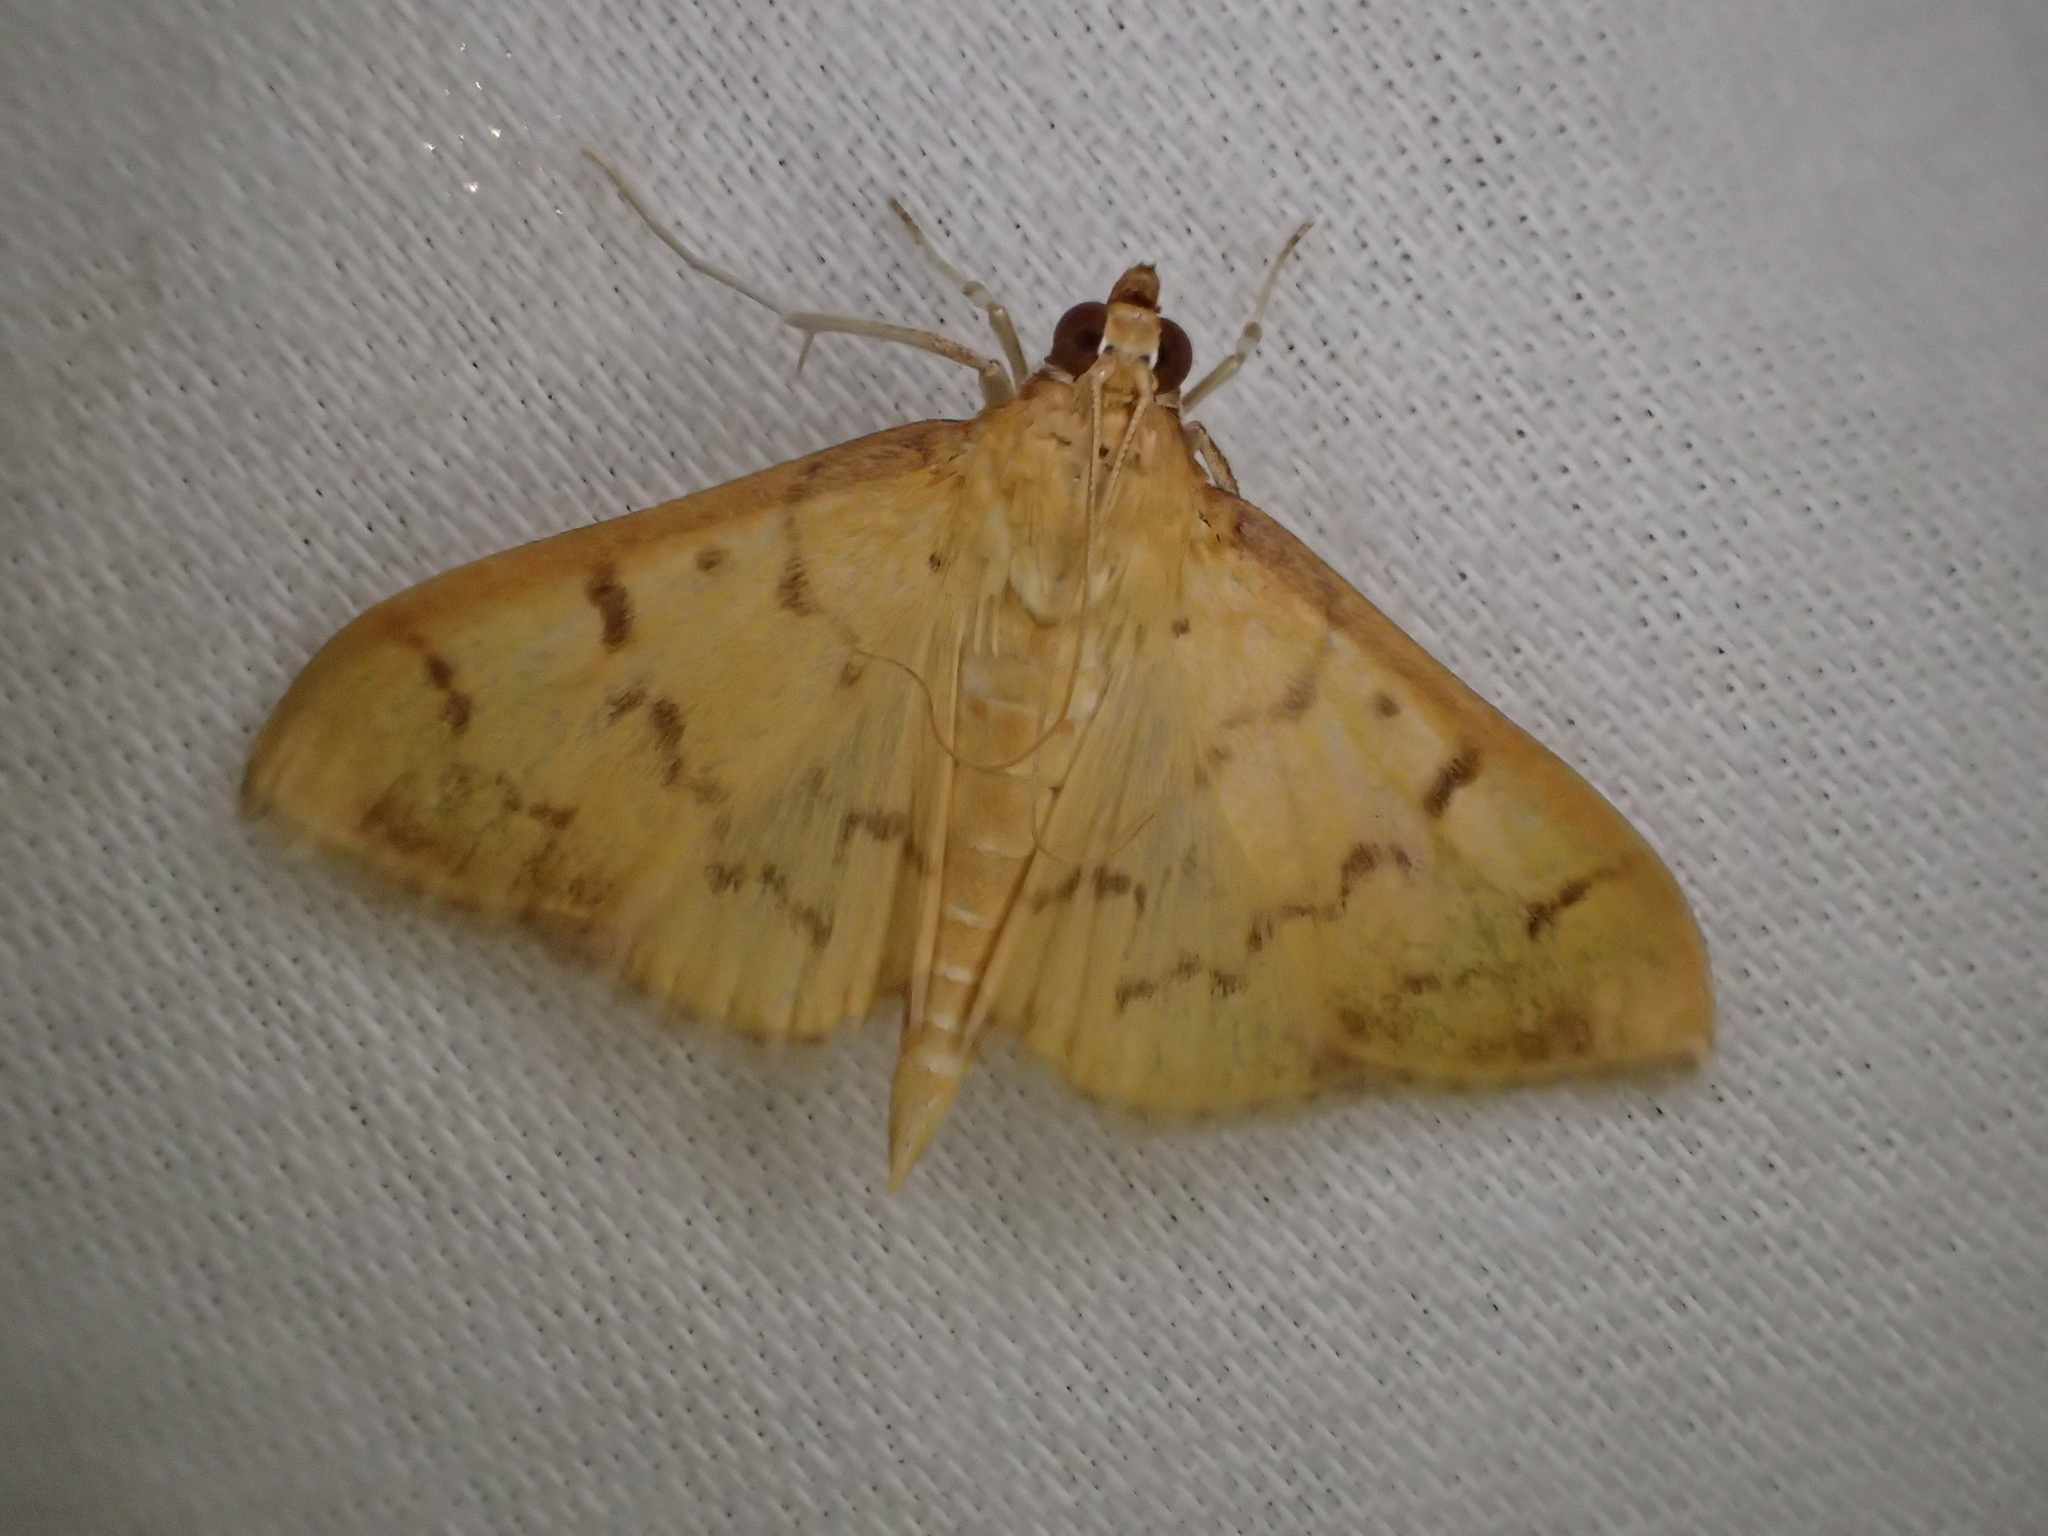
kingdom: Animalia
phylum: Arthropoda
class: Insecta
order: Lepidoptera
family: Crambidae
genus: Pleuroptya
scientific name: Pleuroptya balteata
